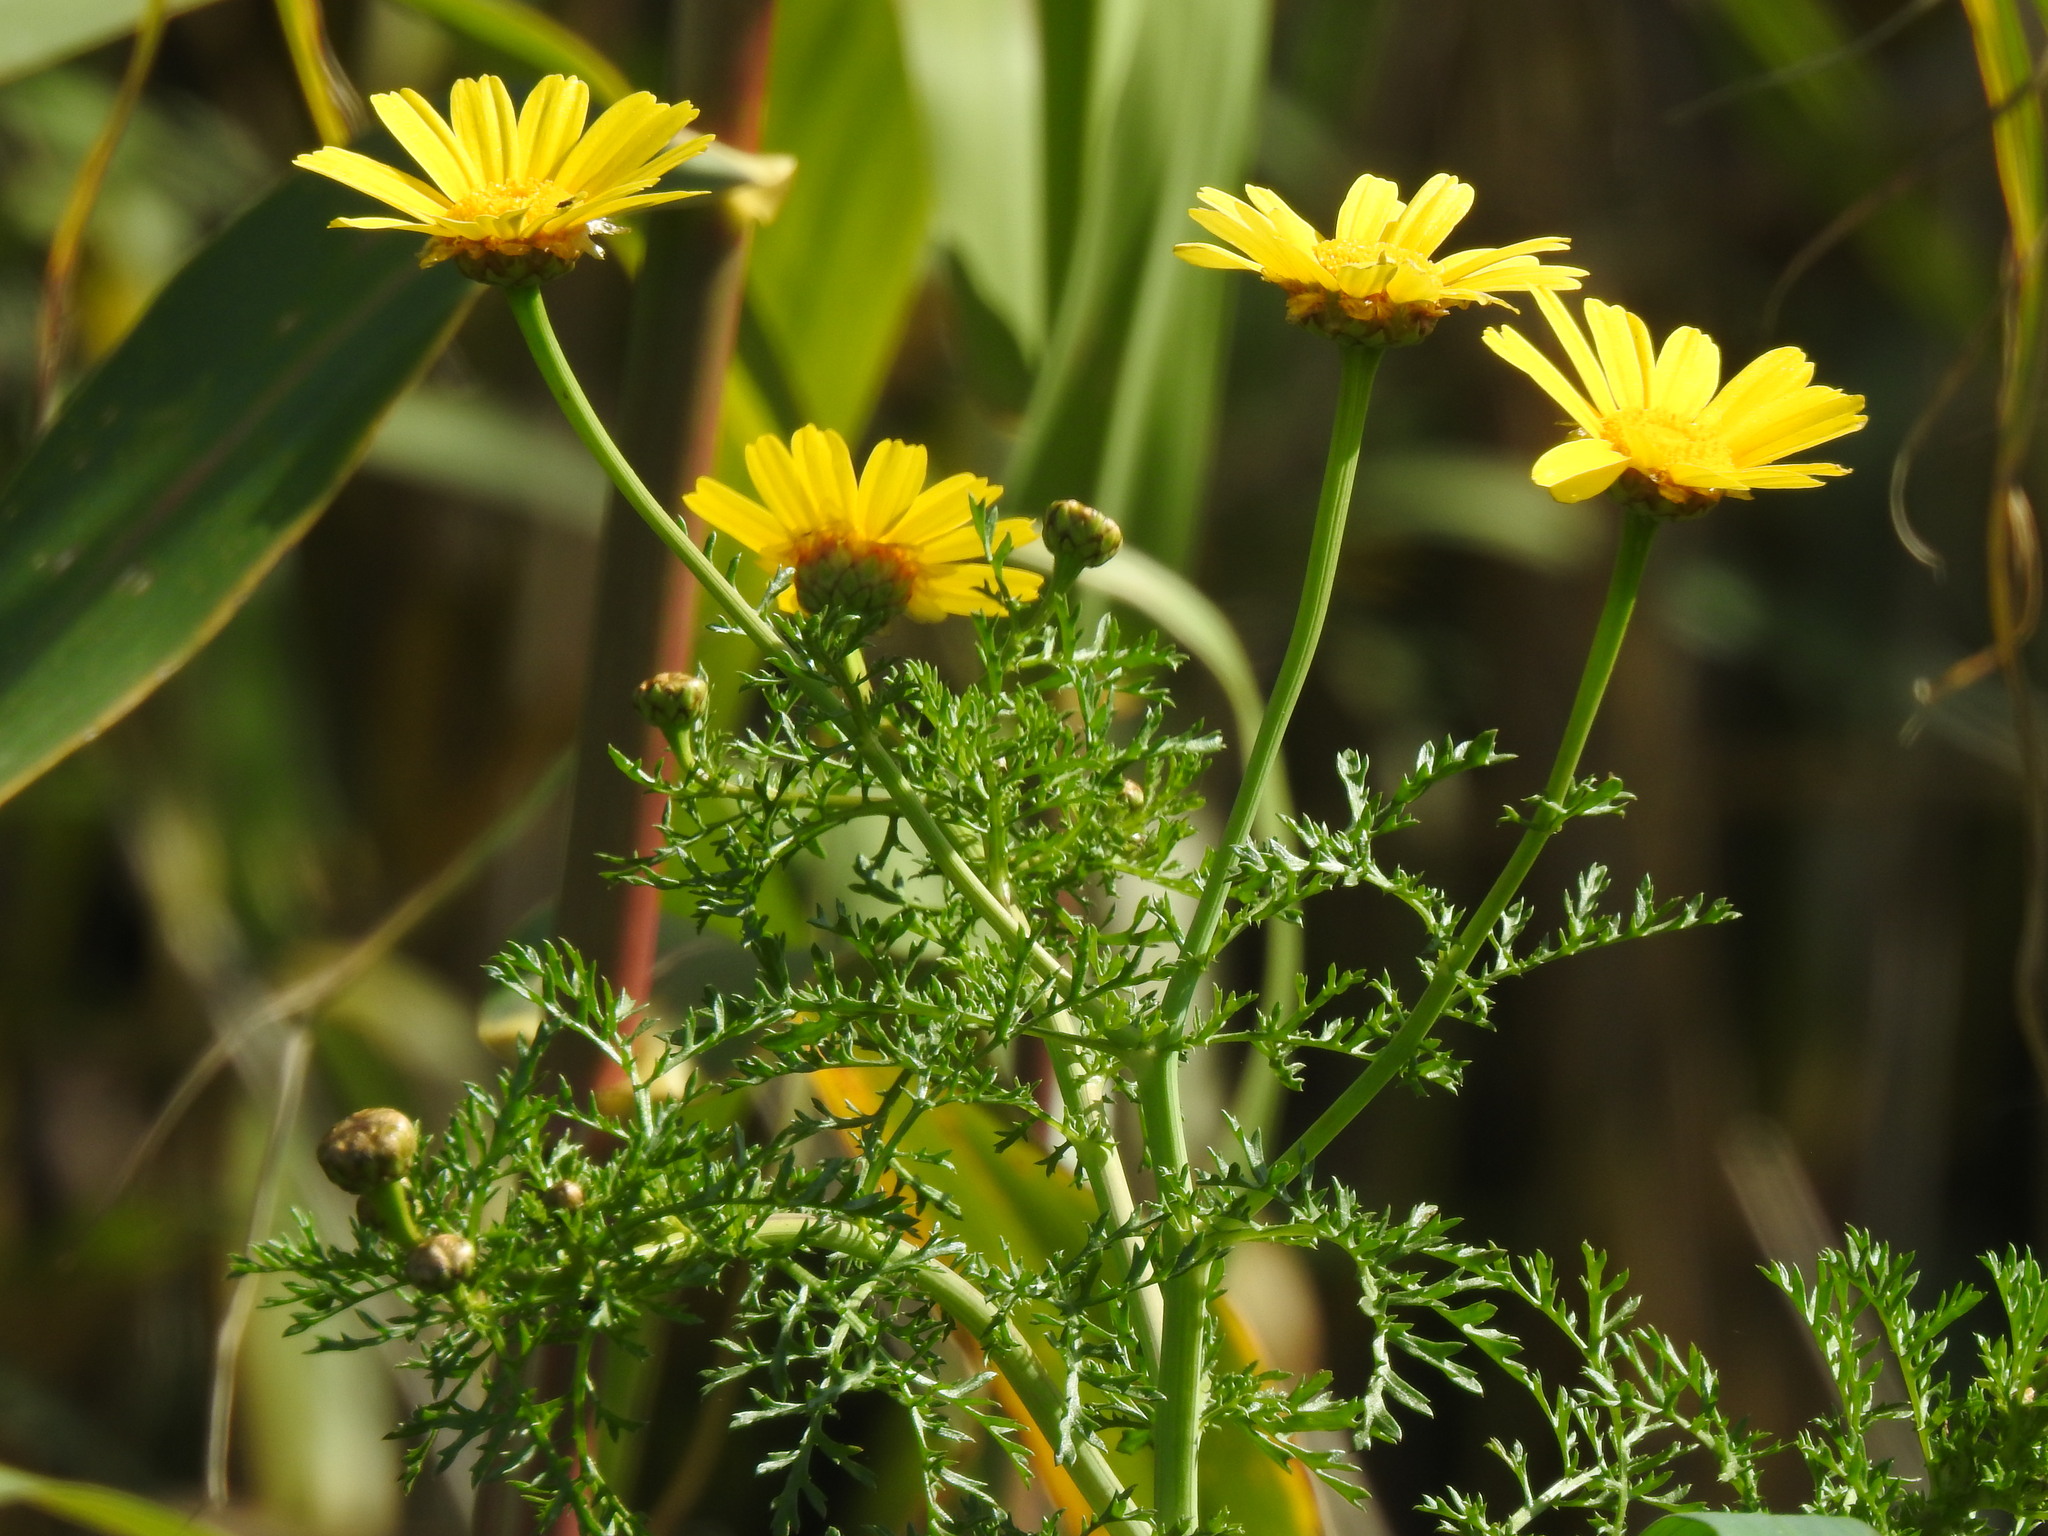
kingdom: Plantae
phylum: Tracheophyta
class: Magnoliopsida
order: Asterales
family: Asteraceae
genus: Glebionis
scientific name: Glebionis coronaria
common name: Crowndaisy
